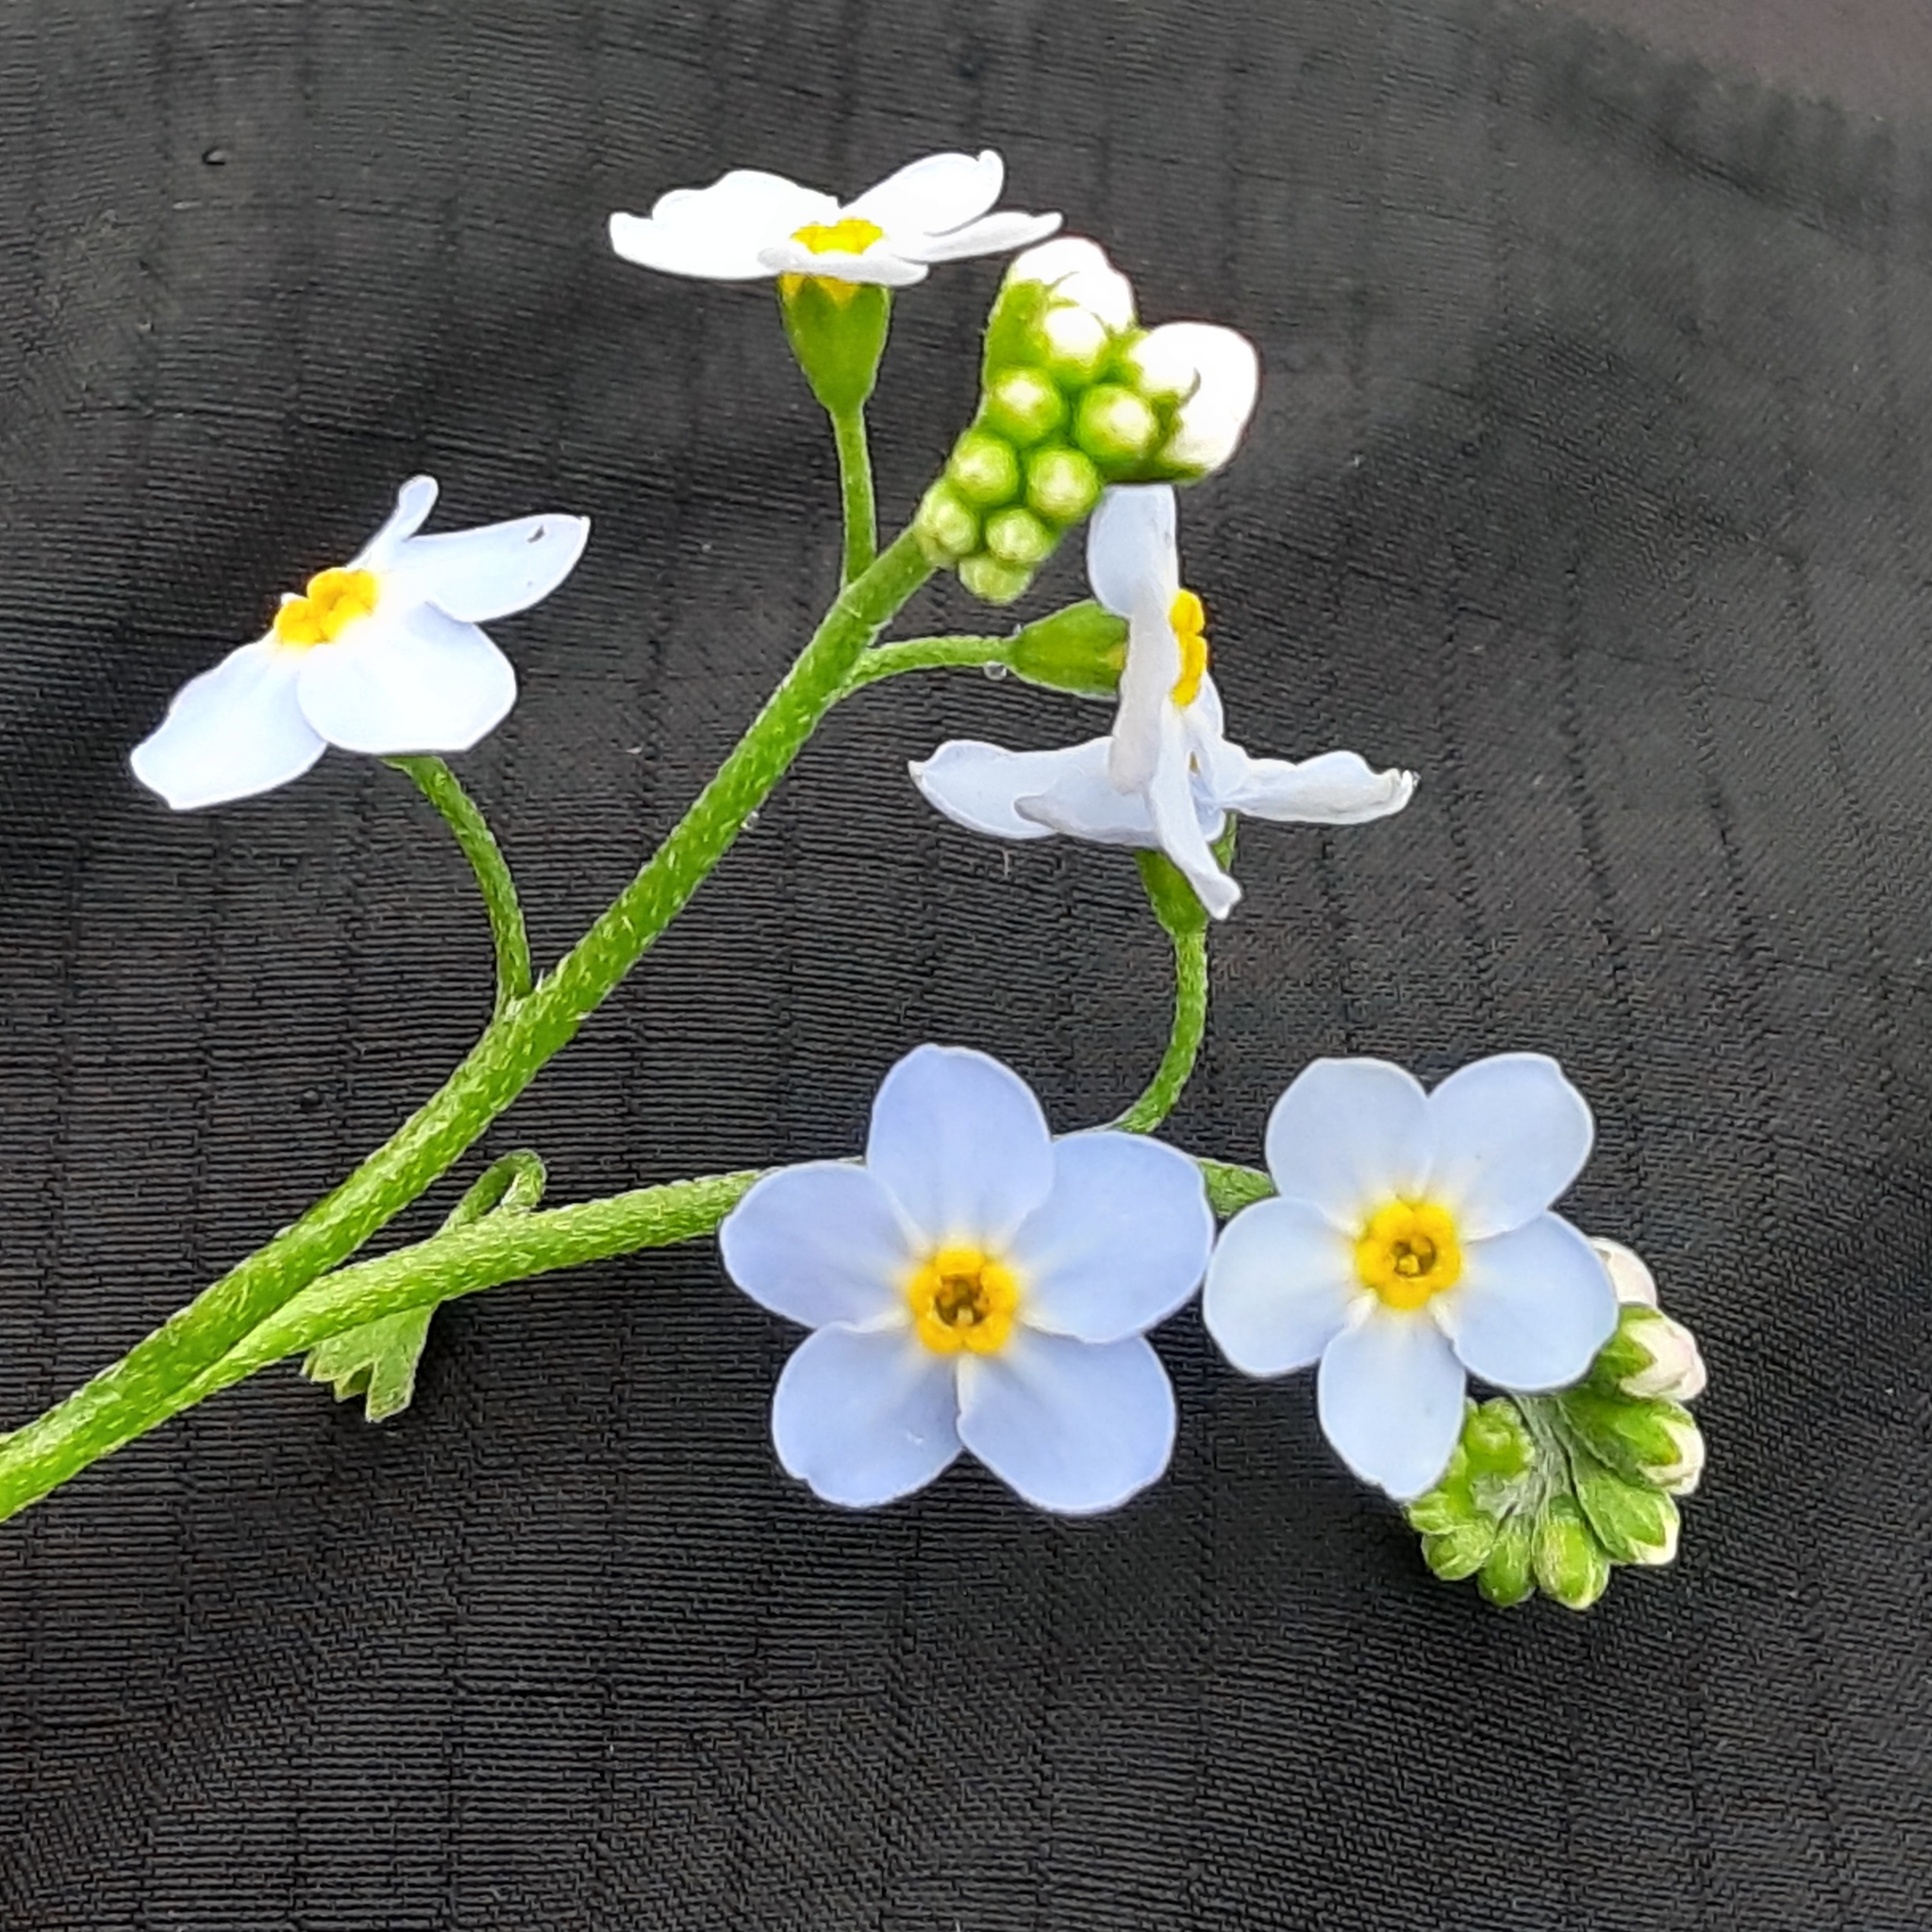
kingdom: Plantae
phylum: Tracheophyta
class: Magnoliopsida
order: Boraginales
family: Boraginaceae
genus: Myosotis
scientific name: Myosotis scorpioides
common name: Water forget-me-not
